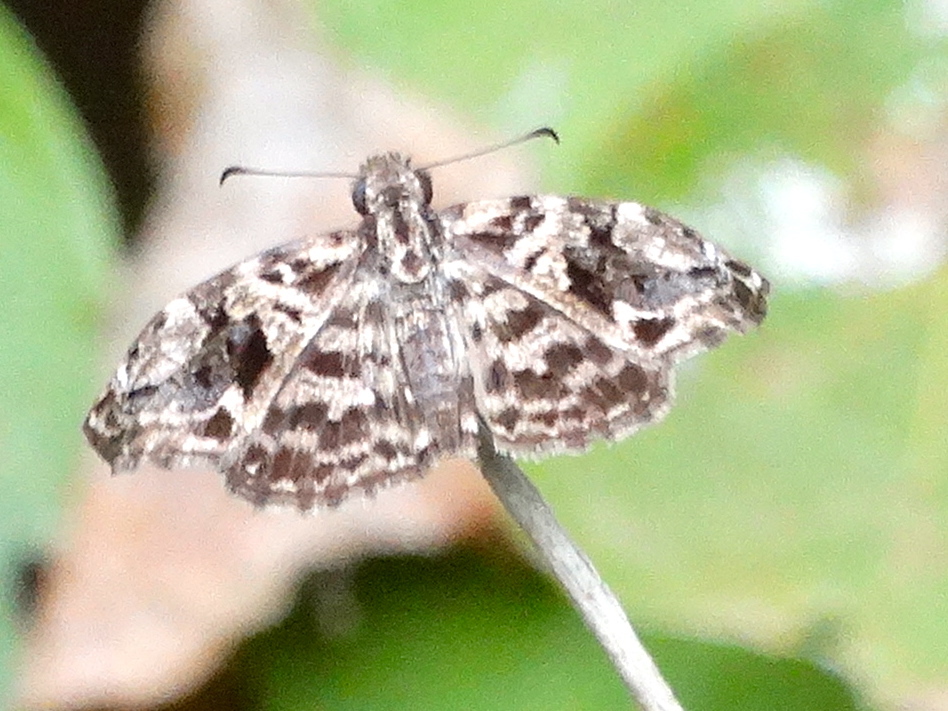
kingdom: Animalia
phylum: Arthropoda
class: Insecta
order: Lepidoptera
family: Hesperiidae
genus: Gorgythion
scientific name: Gorgythion begga
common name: Variegated skipper
